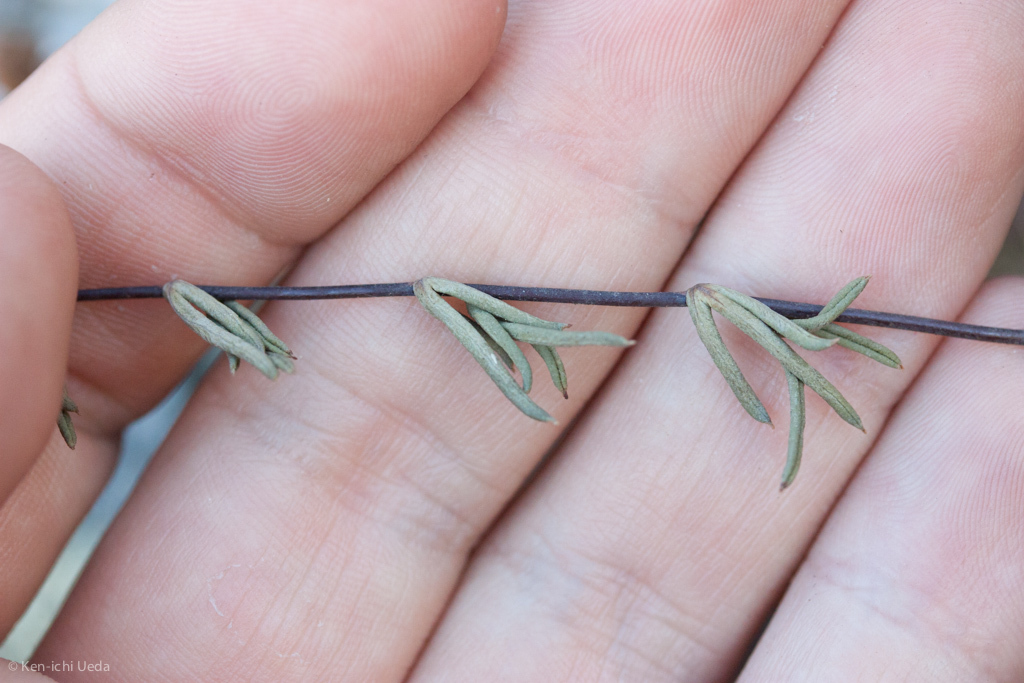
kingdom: Plantae
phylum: Tracheophyta
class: Polypodiopsida
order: Polypodiales
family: Pteridaceae
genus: Pellaea
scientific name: Pellaea ternifolia
